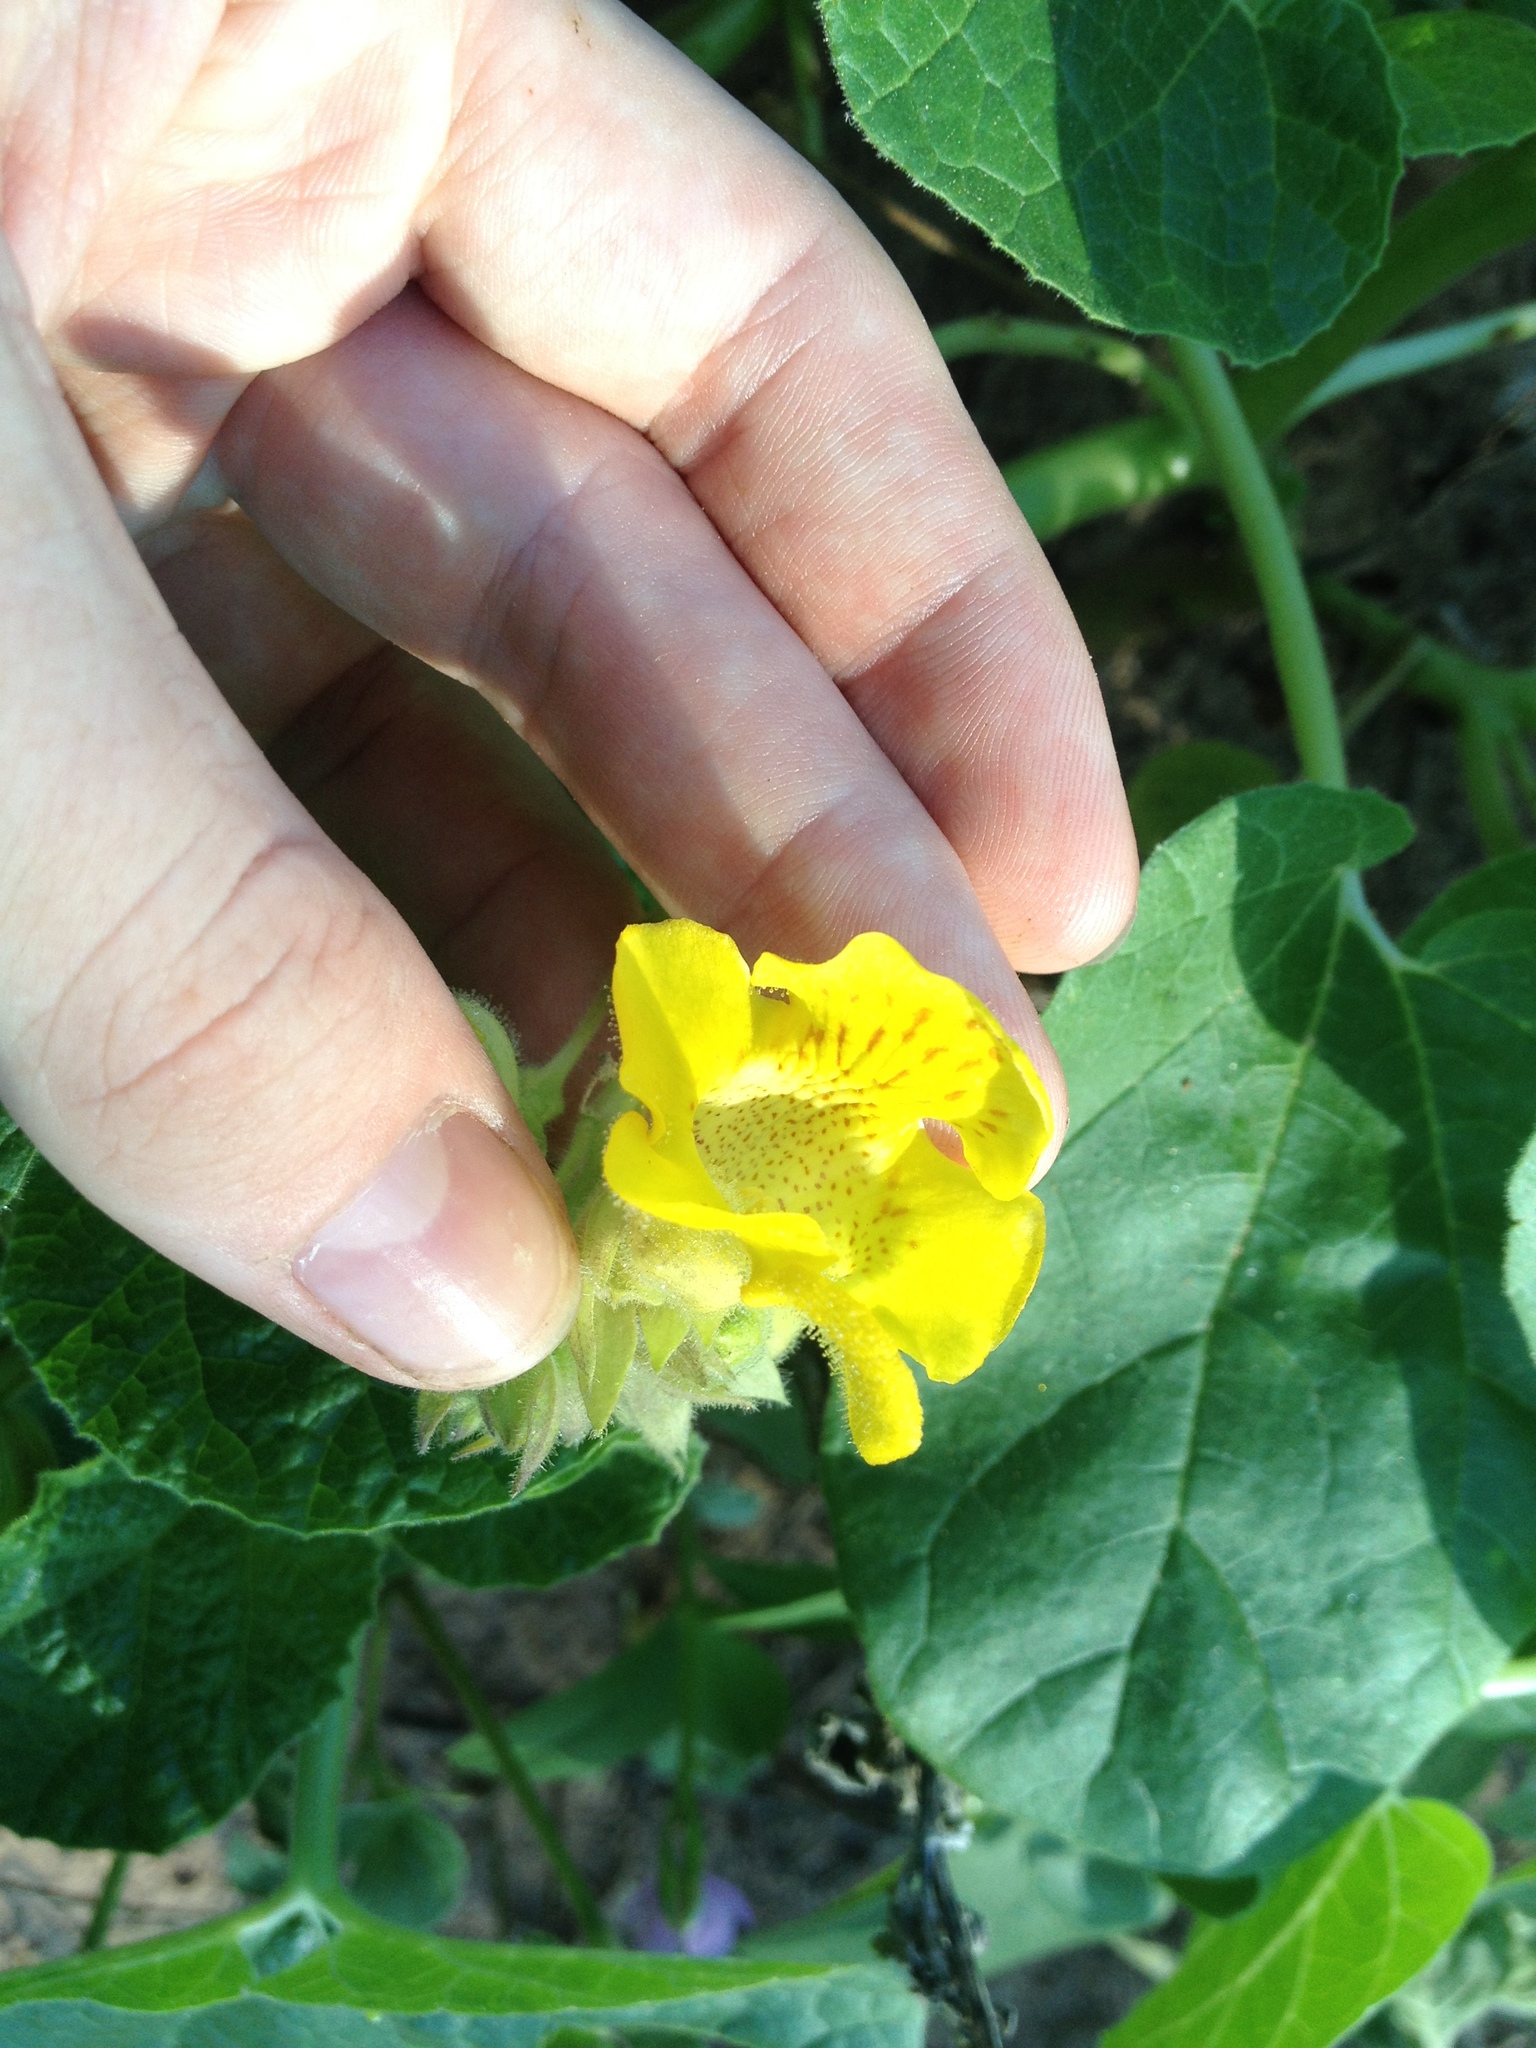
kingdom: Plantae
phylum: Tracheophyta
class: Magnoliopsida
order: Lamiales
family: Martyniaceae
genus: Ibicella
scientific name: Ibicella lutea
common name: Yellow unicorn-plant
